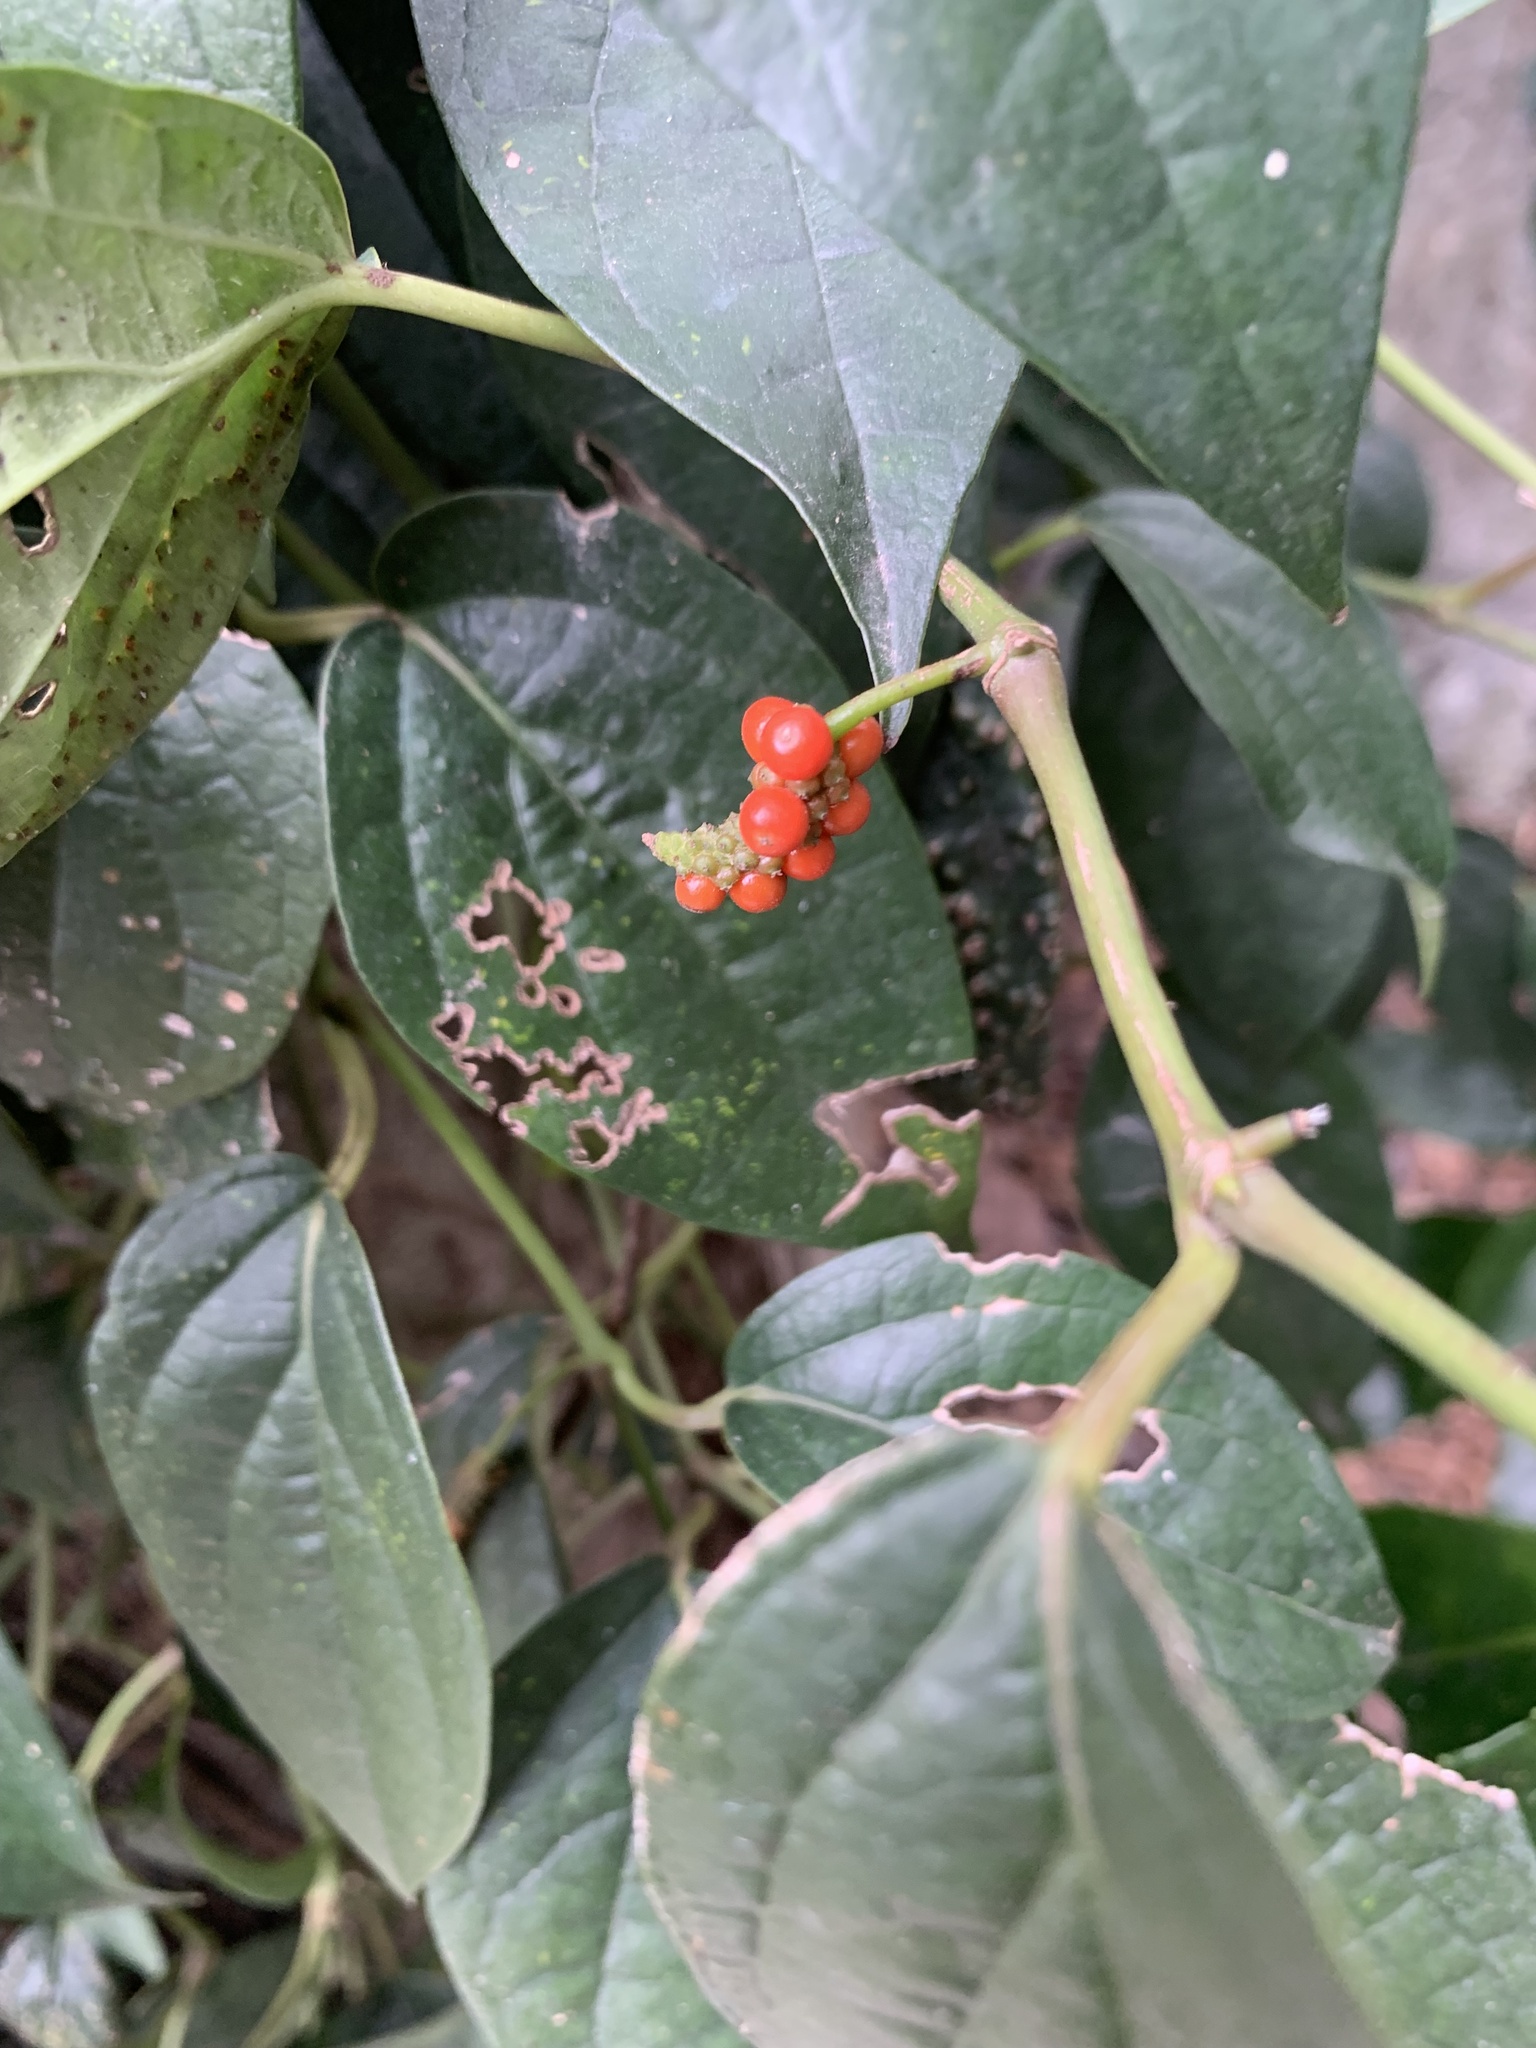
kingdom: Plantae
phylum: Tracheophyta
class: Magnoliopsida
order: Piperales
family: Piperaceae
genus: Piper
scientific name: Piper kadsura
